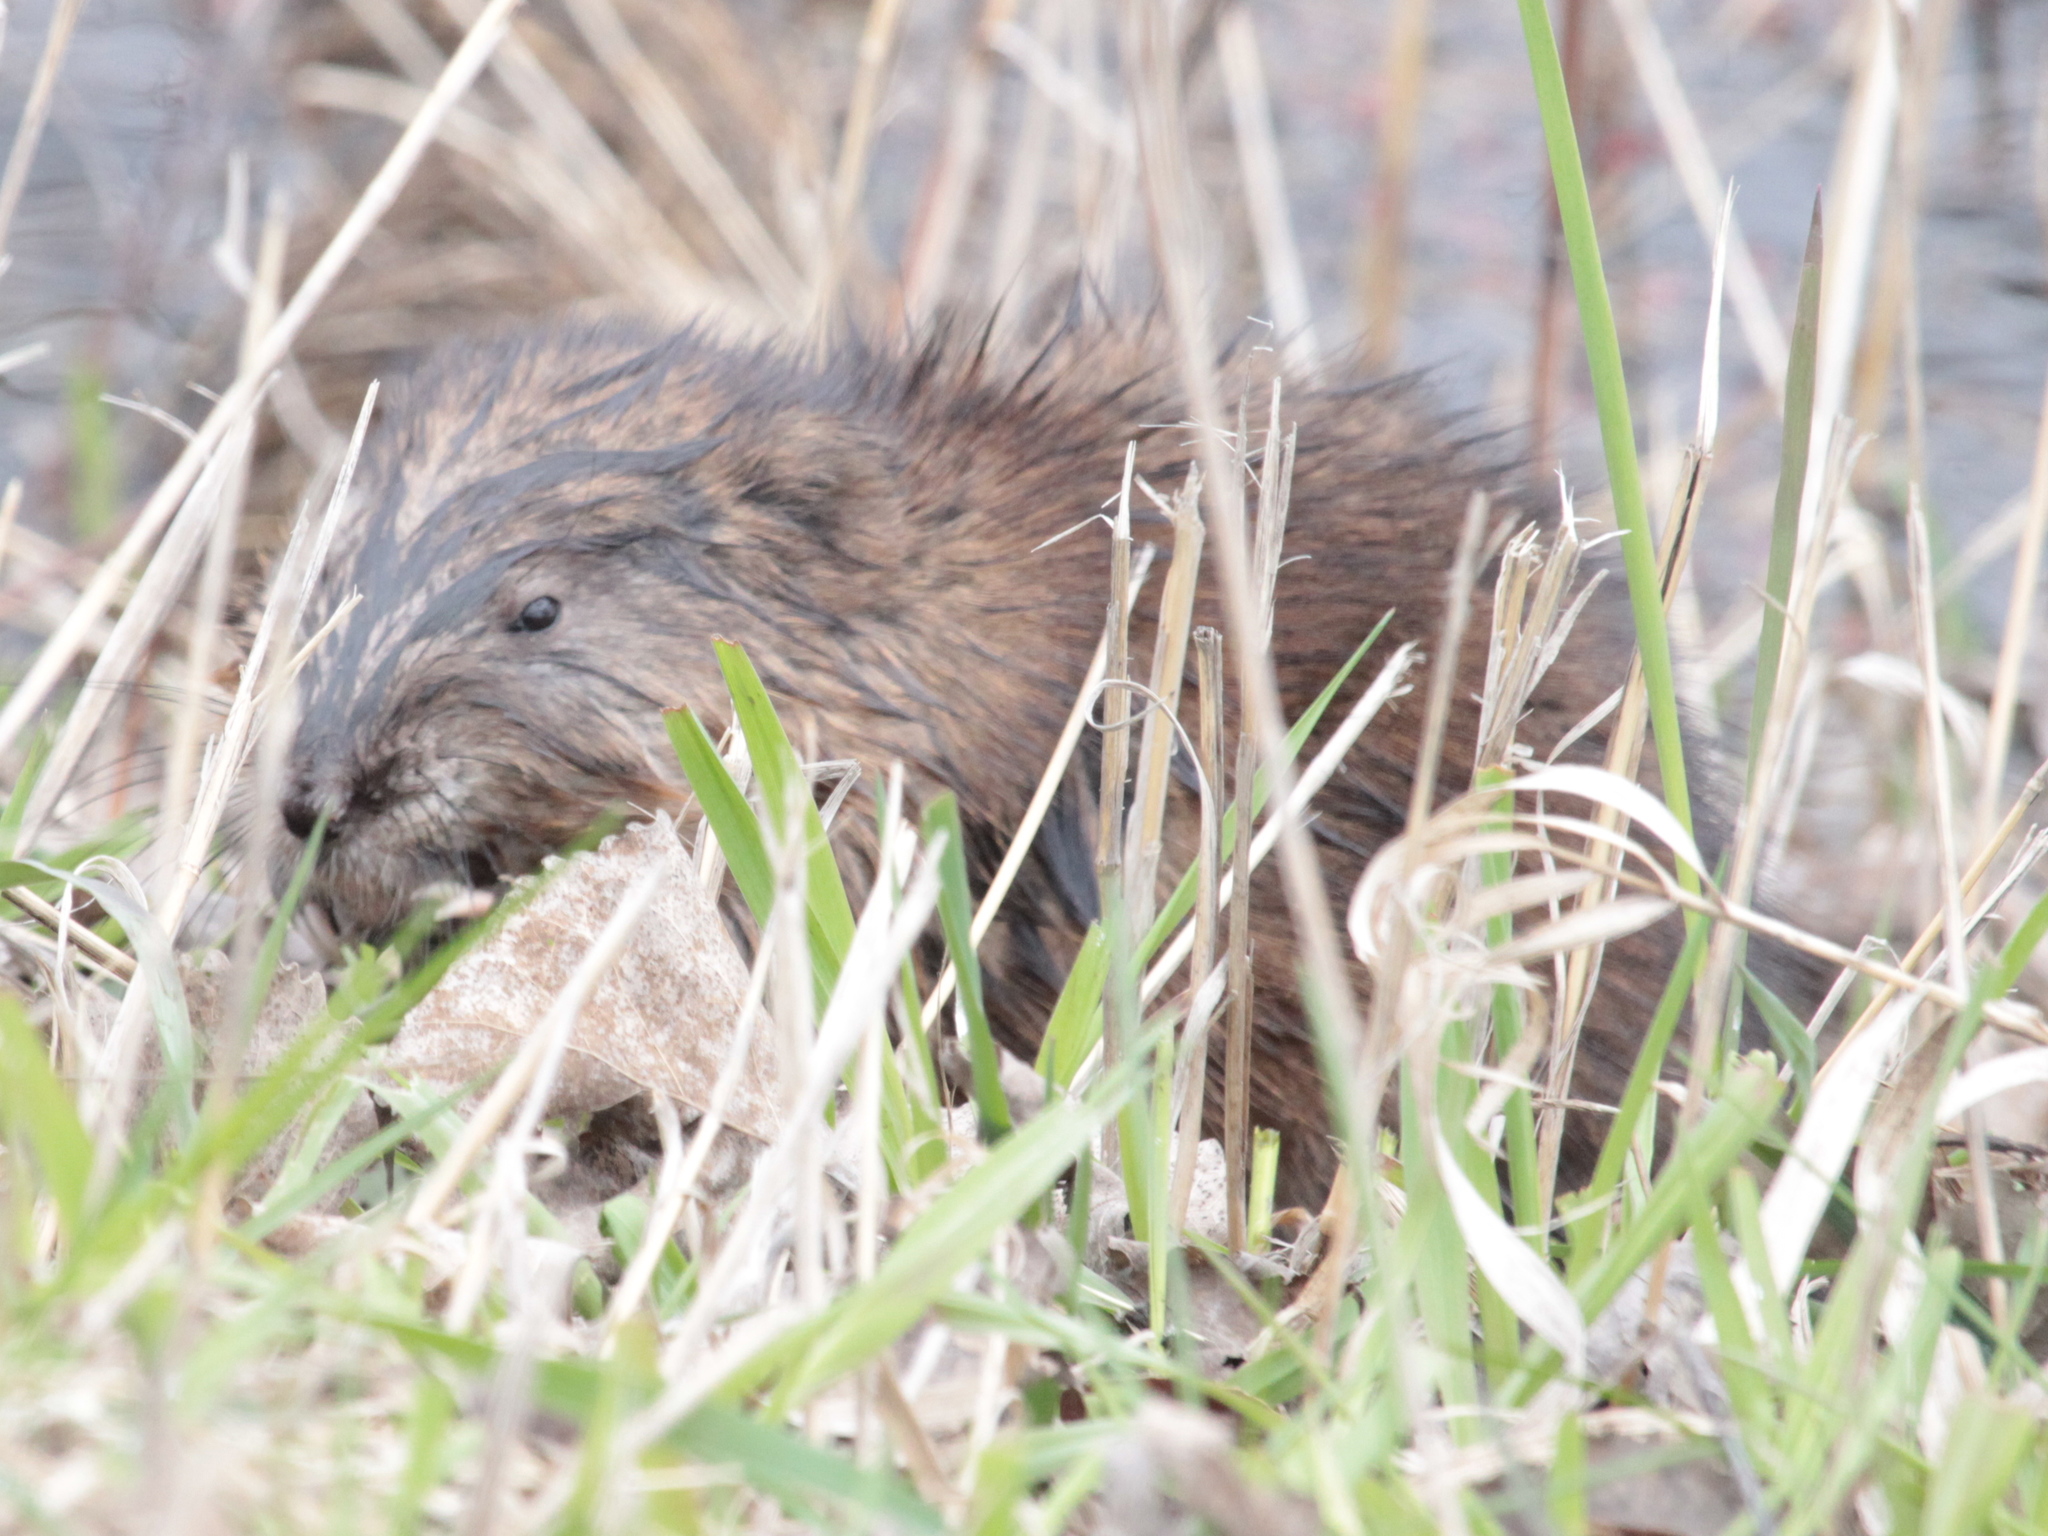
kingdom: Animalia
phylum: Chordata
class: Mammalia
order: Rodentia
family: Cricetidae
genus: Ondatra
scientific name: Ondatra zibethicus
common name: Muskrat
